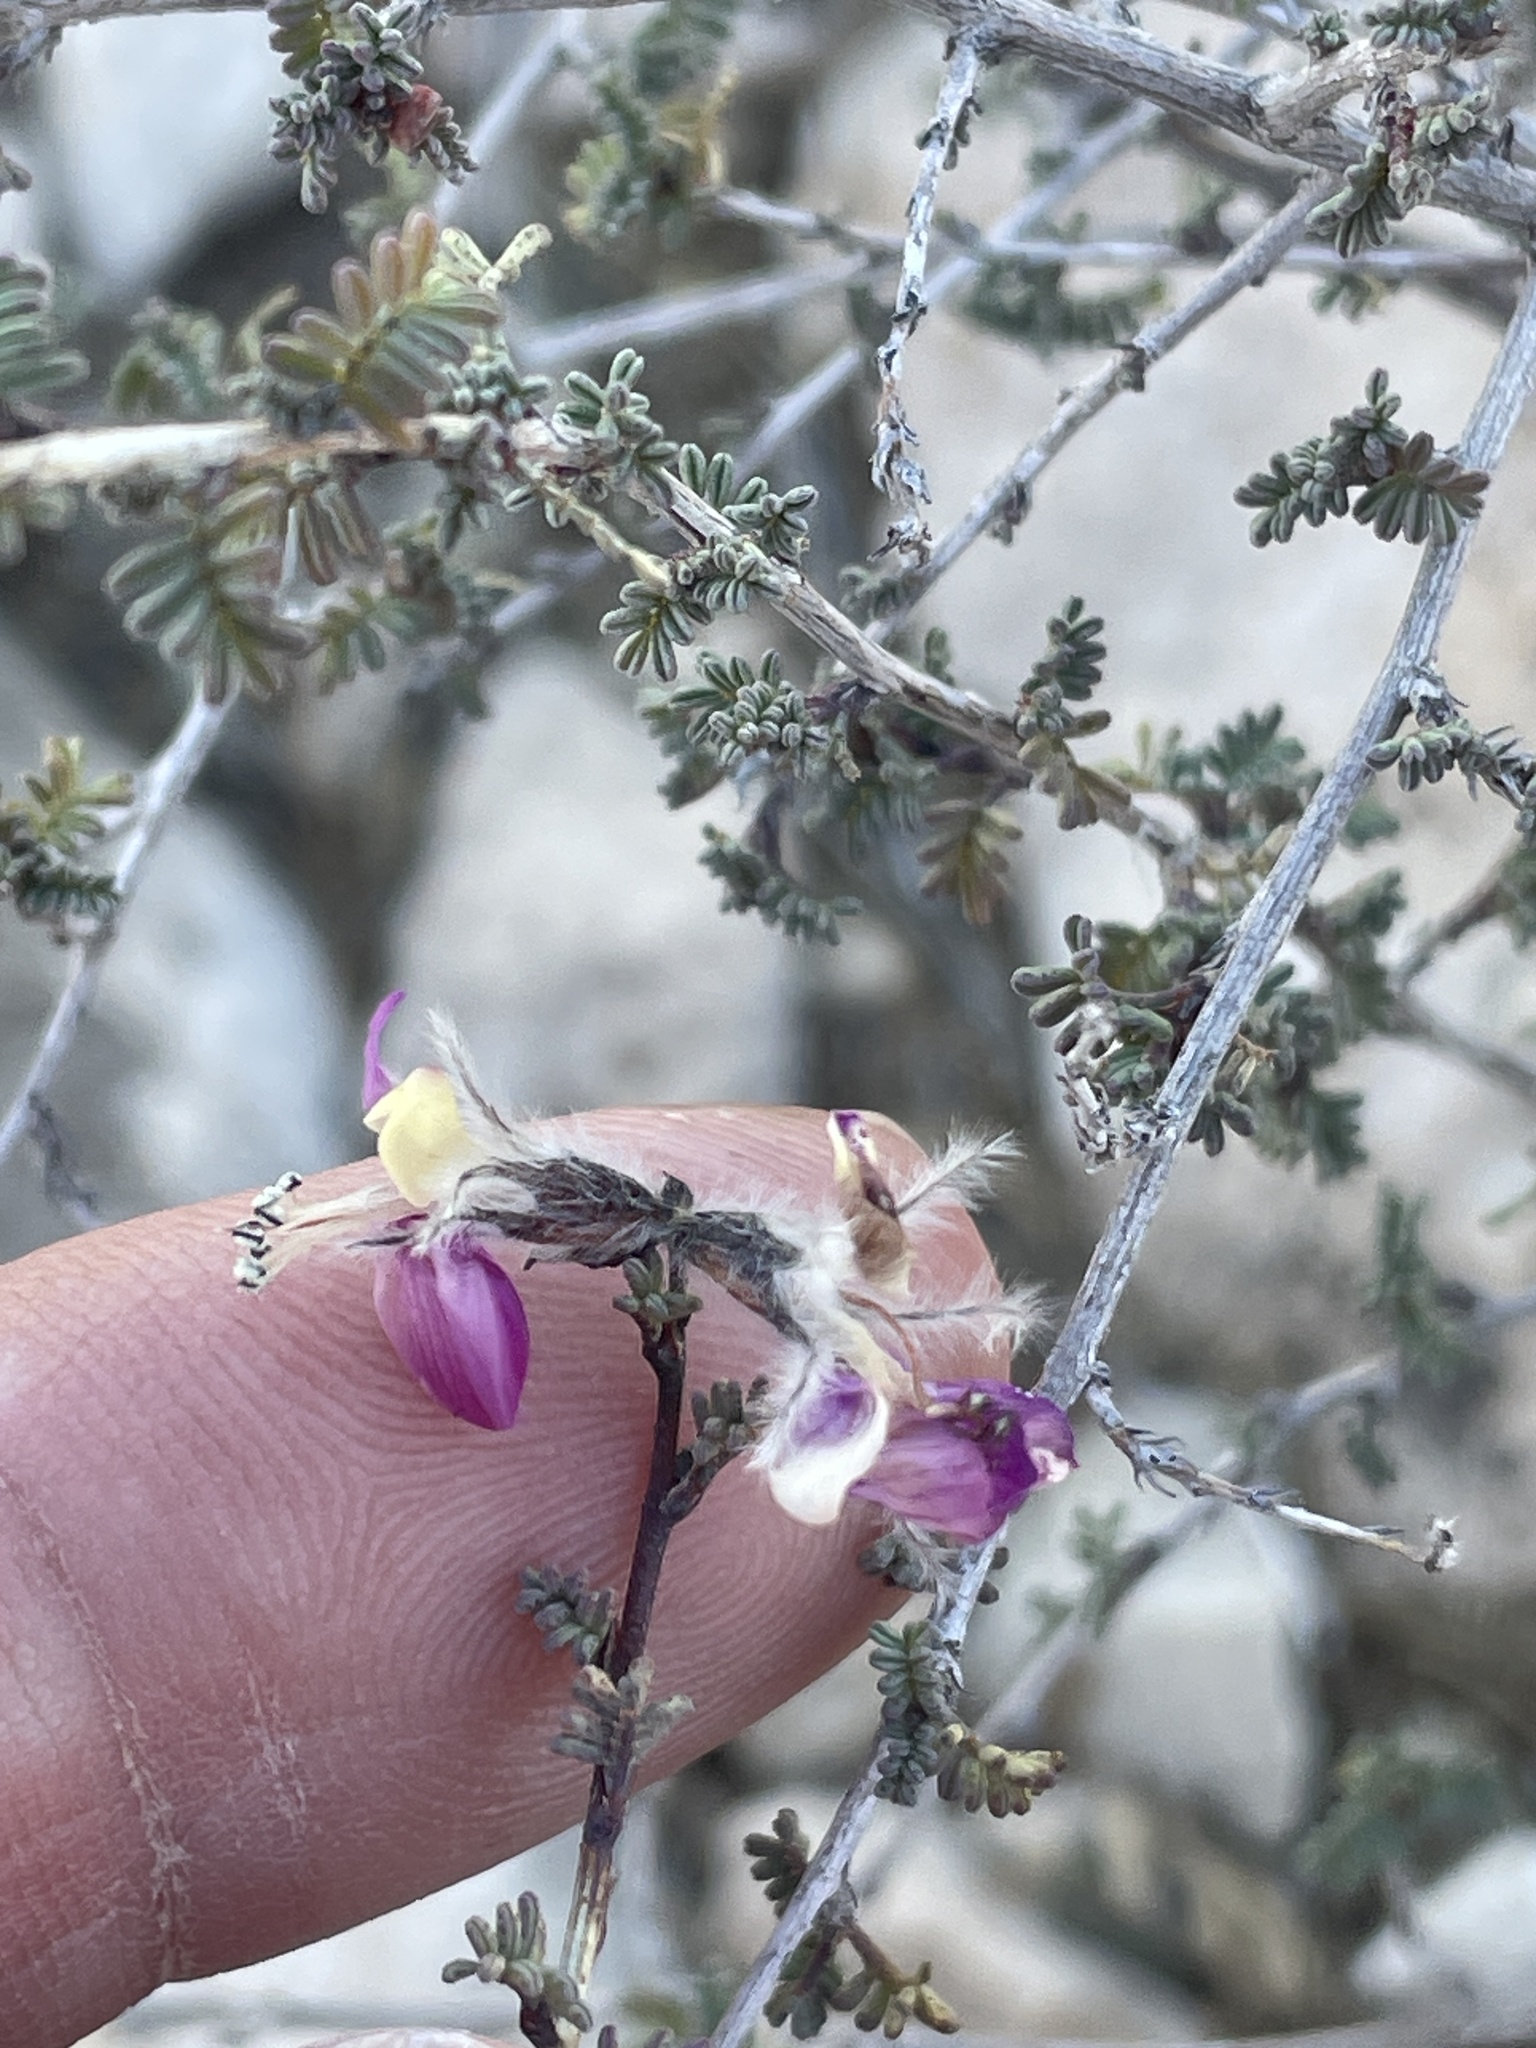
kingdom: Plantae
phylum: Tracheophyta
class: Magnoliopsida
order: Fabales
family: Fabaceae
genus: Dalea
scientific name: Dalea formosa
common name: Feather-plume dalea
